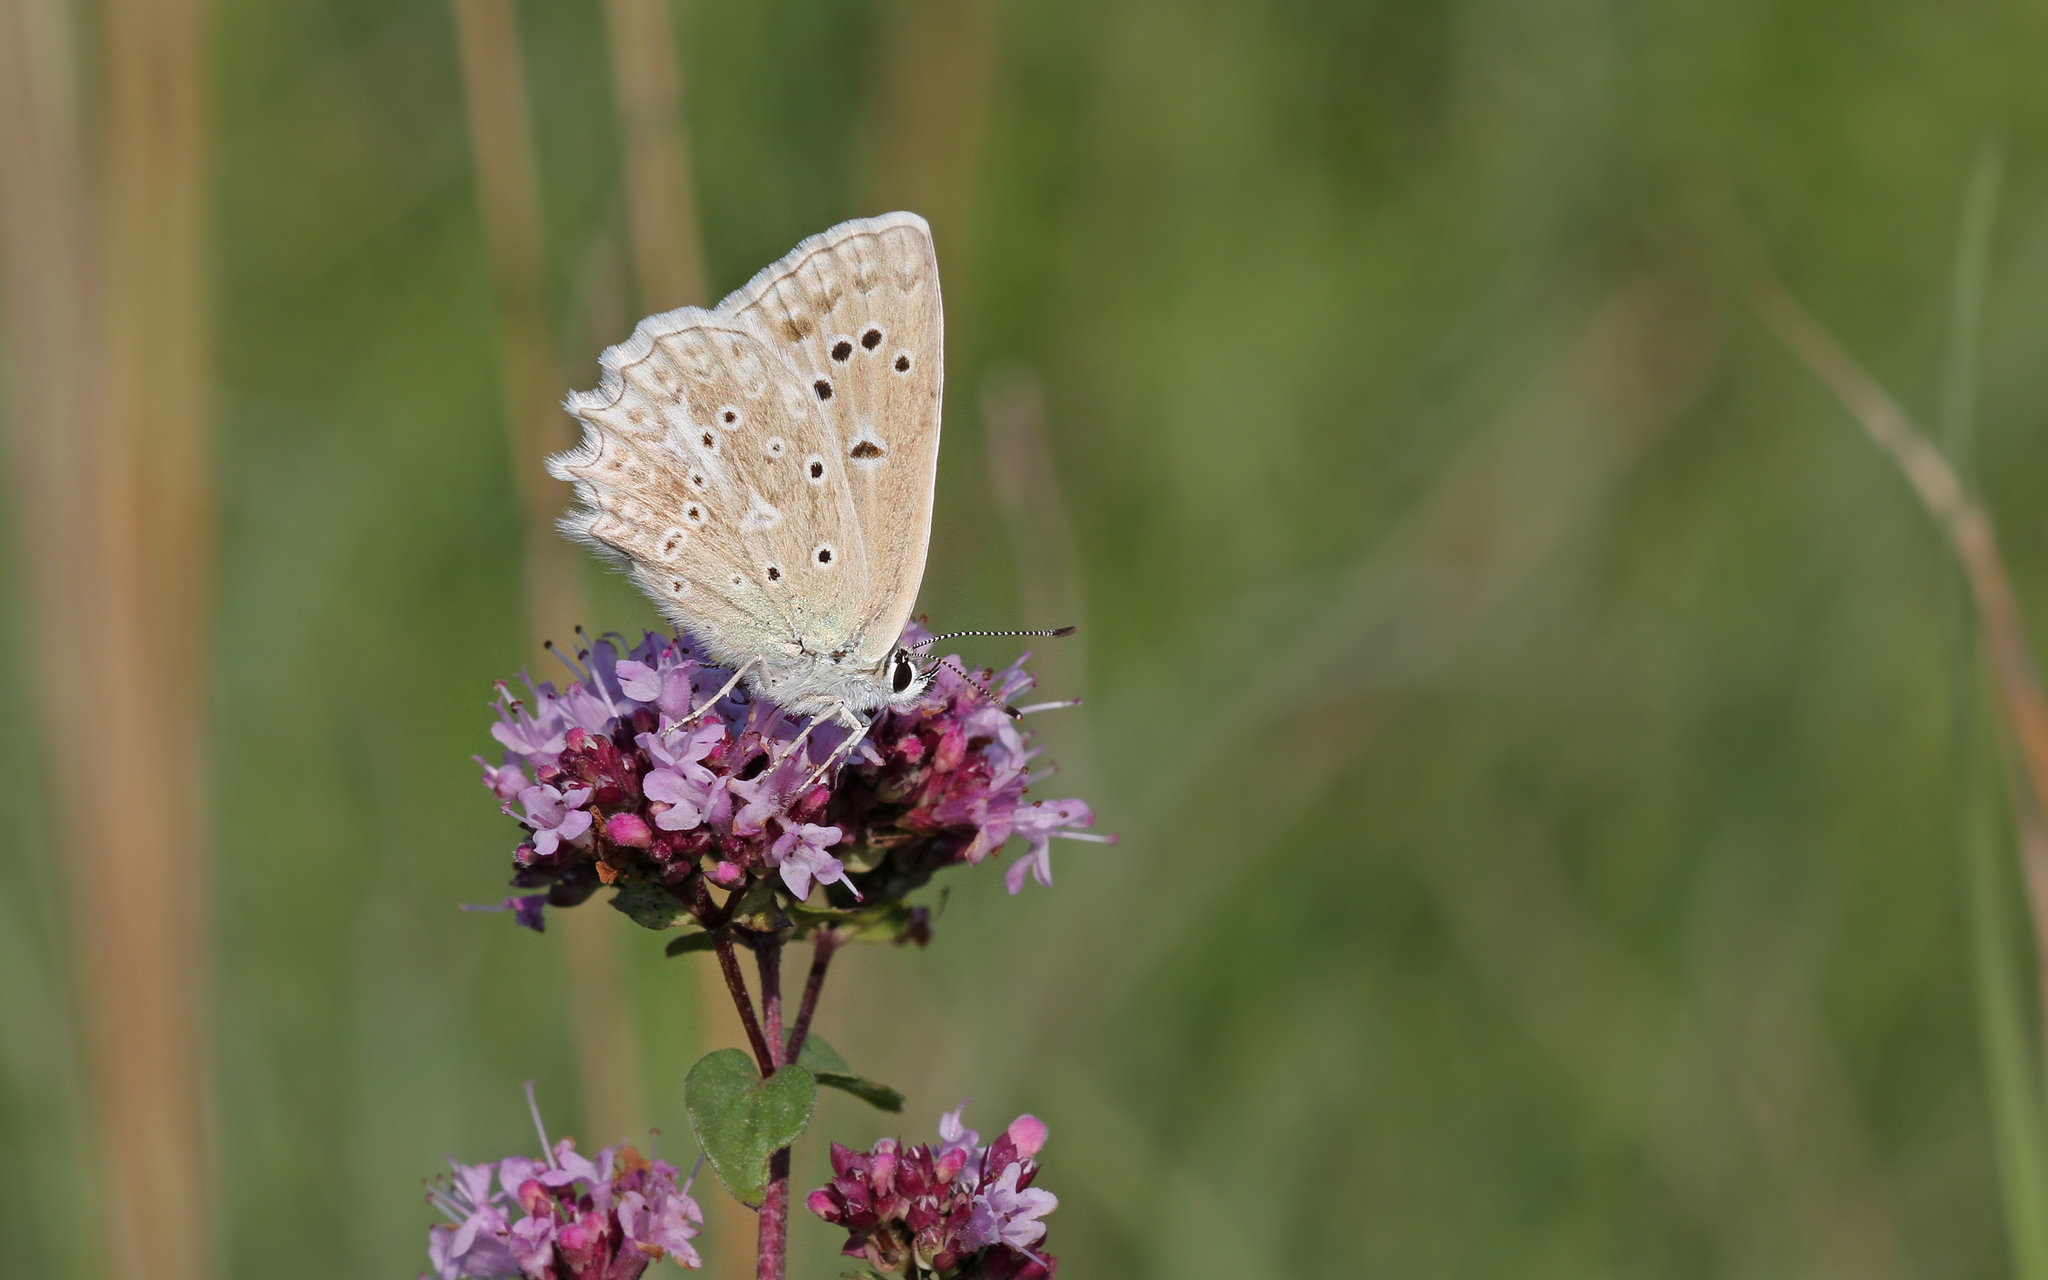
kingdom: Animalia
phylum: Arthropoda
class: Insecta
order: Lepidoptera
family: Lycaenidae
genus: Polyommatus
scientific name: Polyommatus daphnis
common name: Meleager's blue
